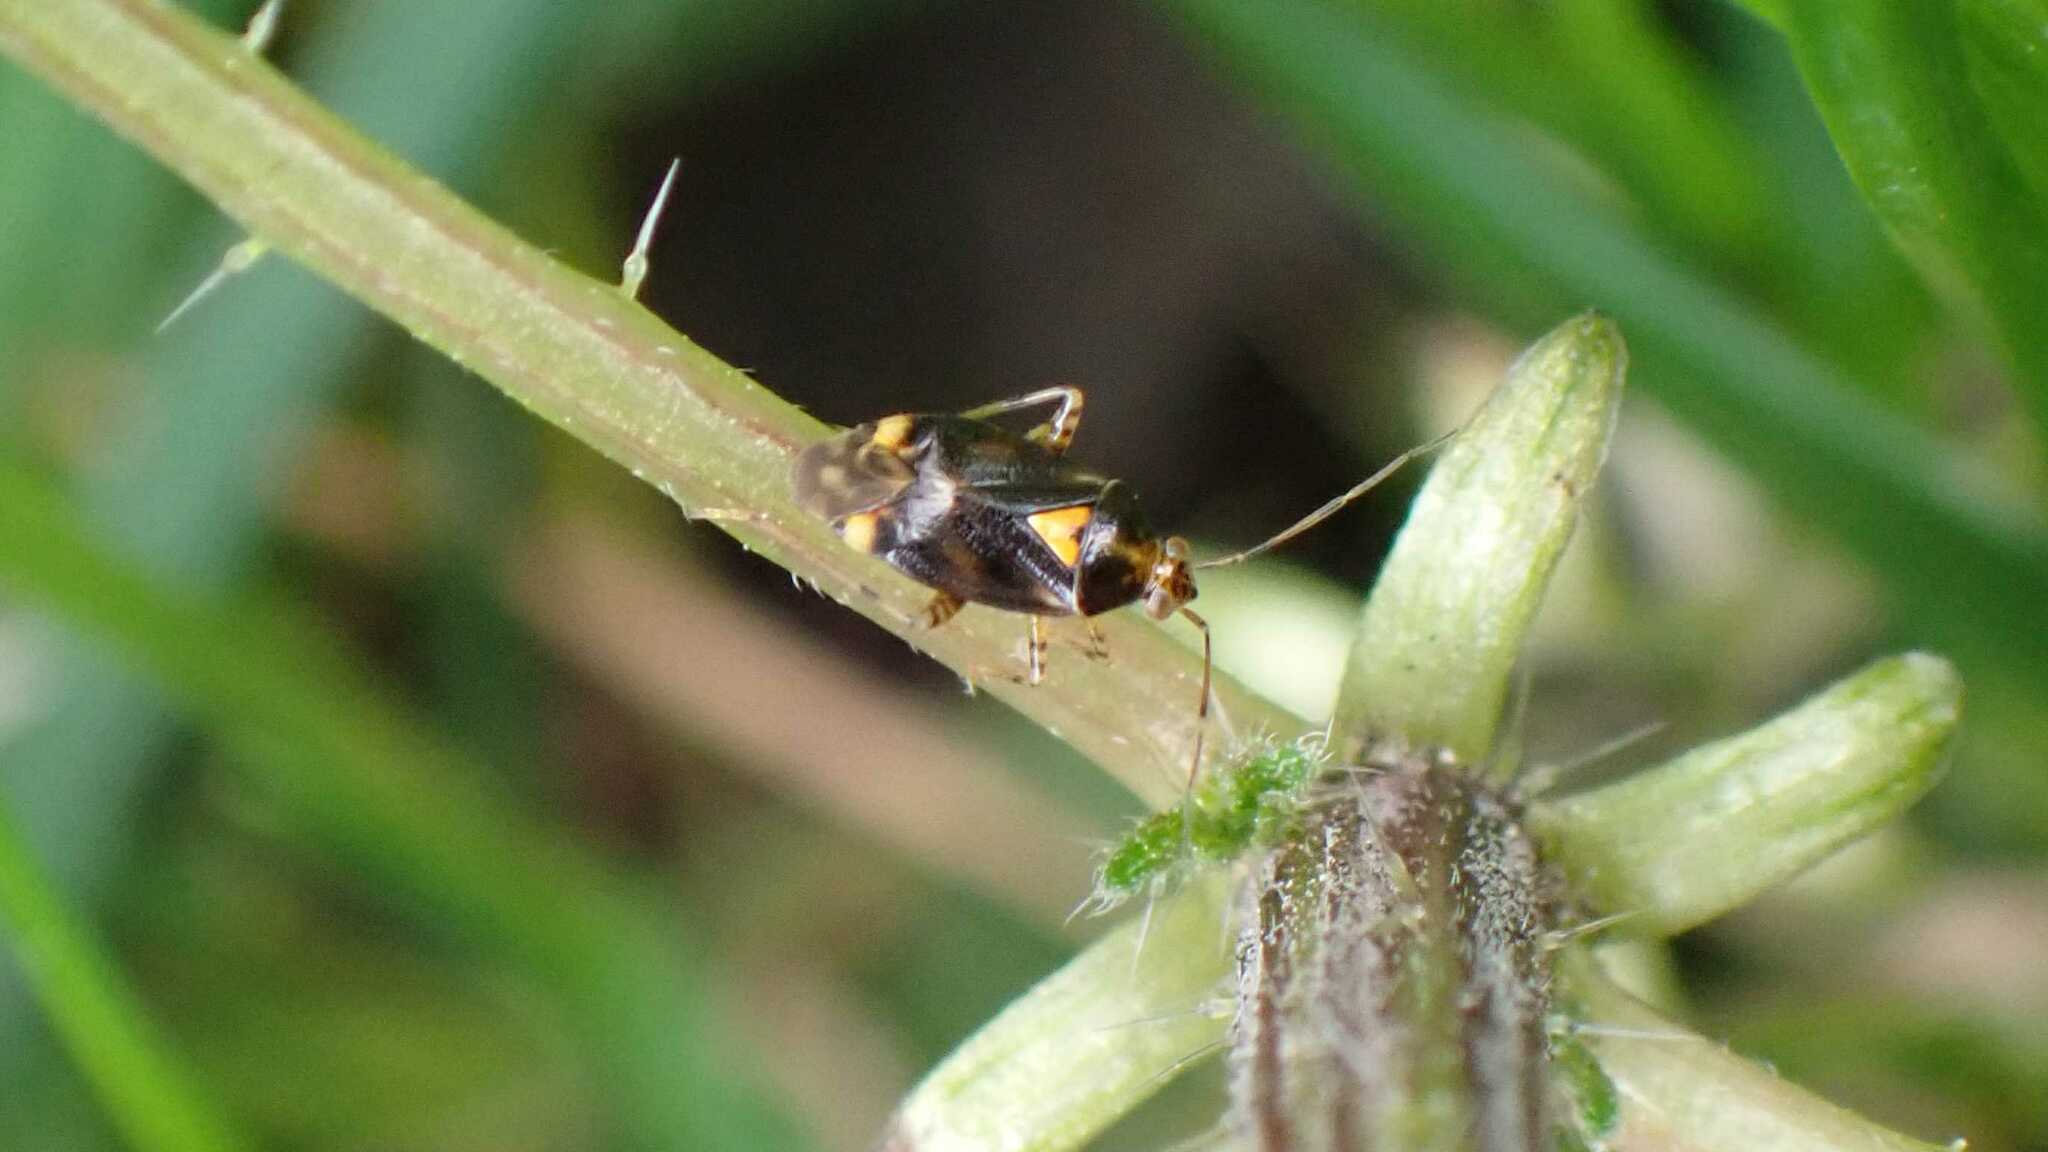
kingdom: Animalia
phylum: Arthropoda
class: Insecta
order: Hemiptera
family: Miridae
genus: Liocoris
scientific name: Liocoris tripustulatus
